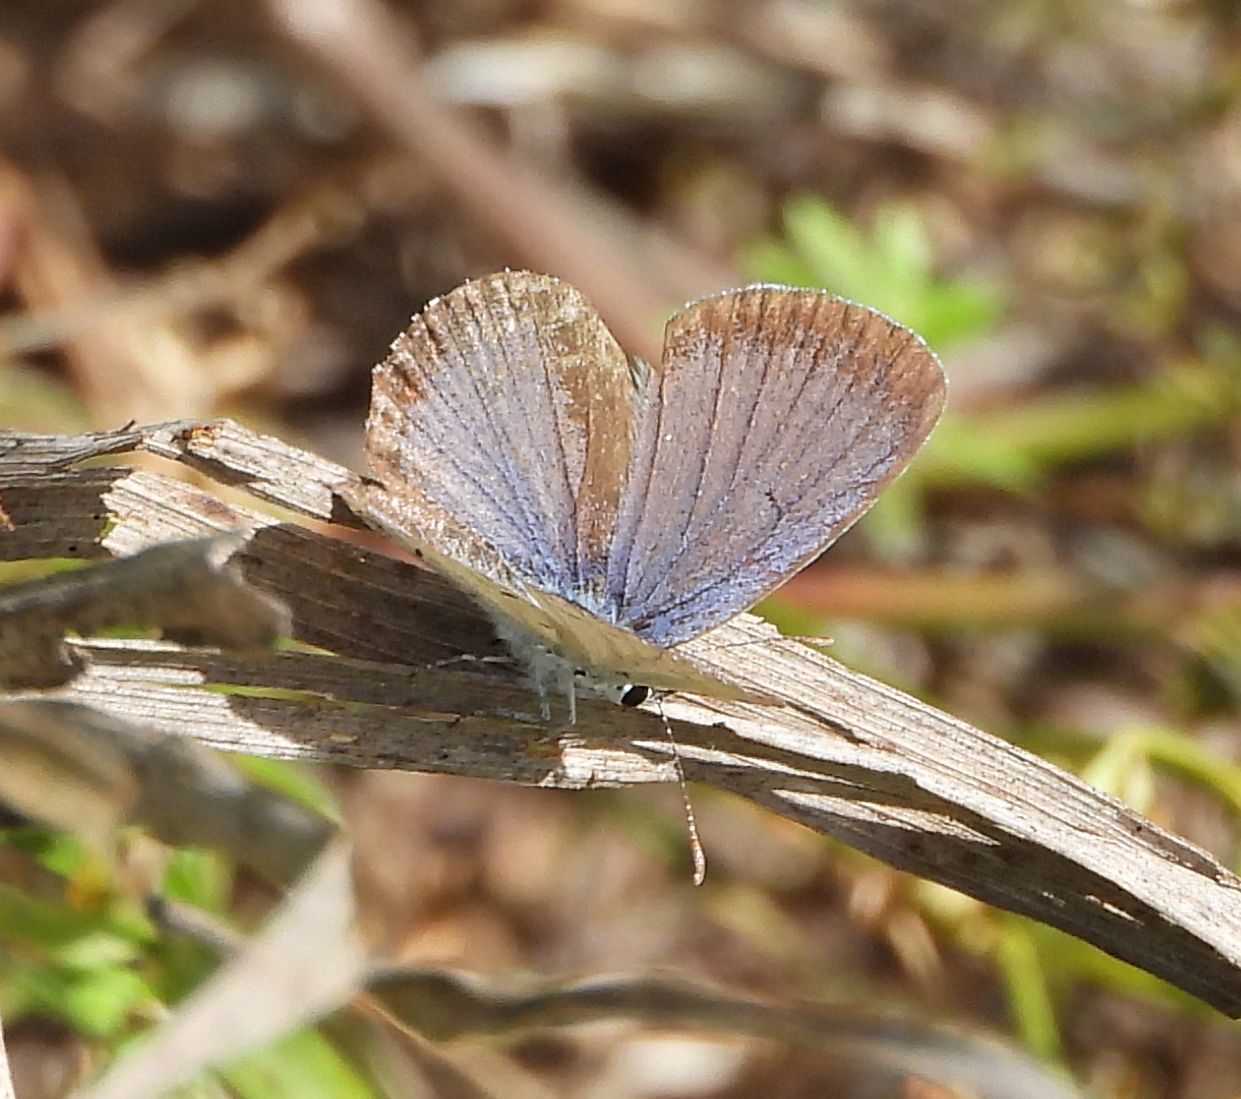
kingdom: Animalia
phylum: Arthropoda
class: Insecta
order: Lepidoptera
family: Lycaenidae
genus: Elkalyce
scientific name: Elkalyce comyntas
